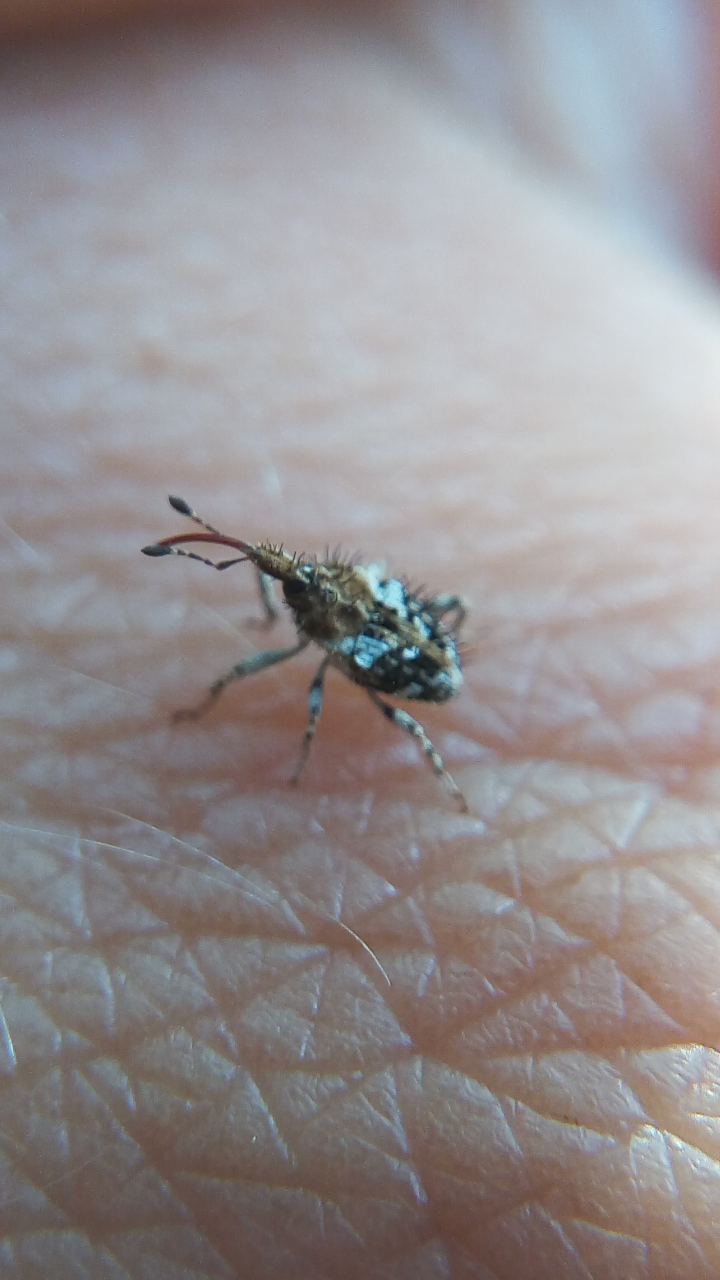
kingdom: Animalia
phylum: Arthropoda
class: Insecta
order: Coleoptera
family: Curculionidae
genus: Plocamus
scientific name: Plocamus echidna
